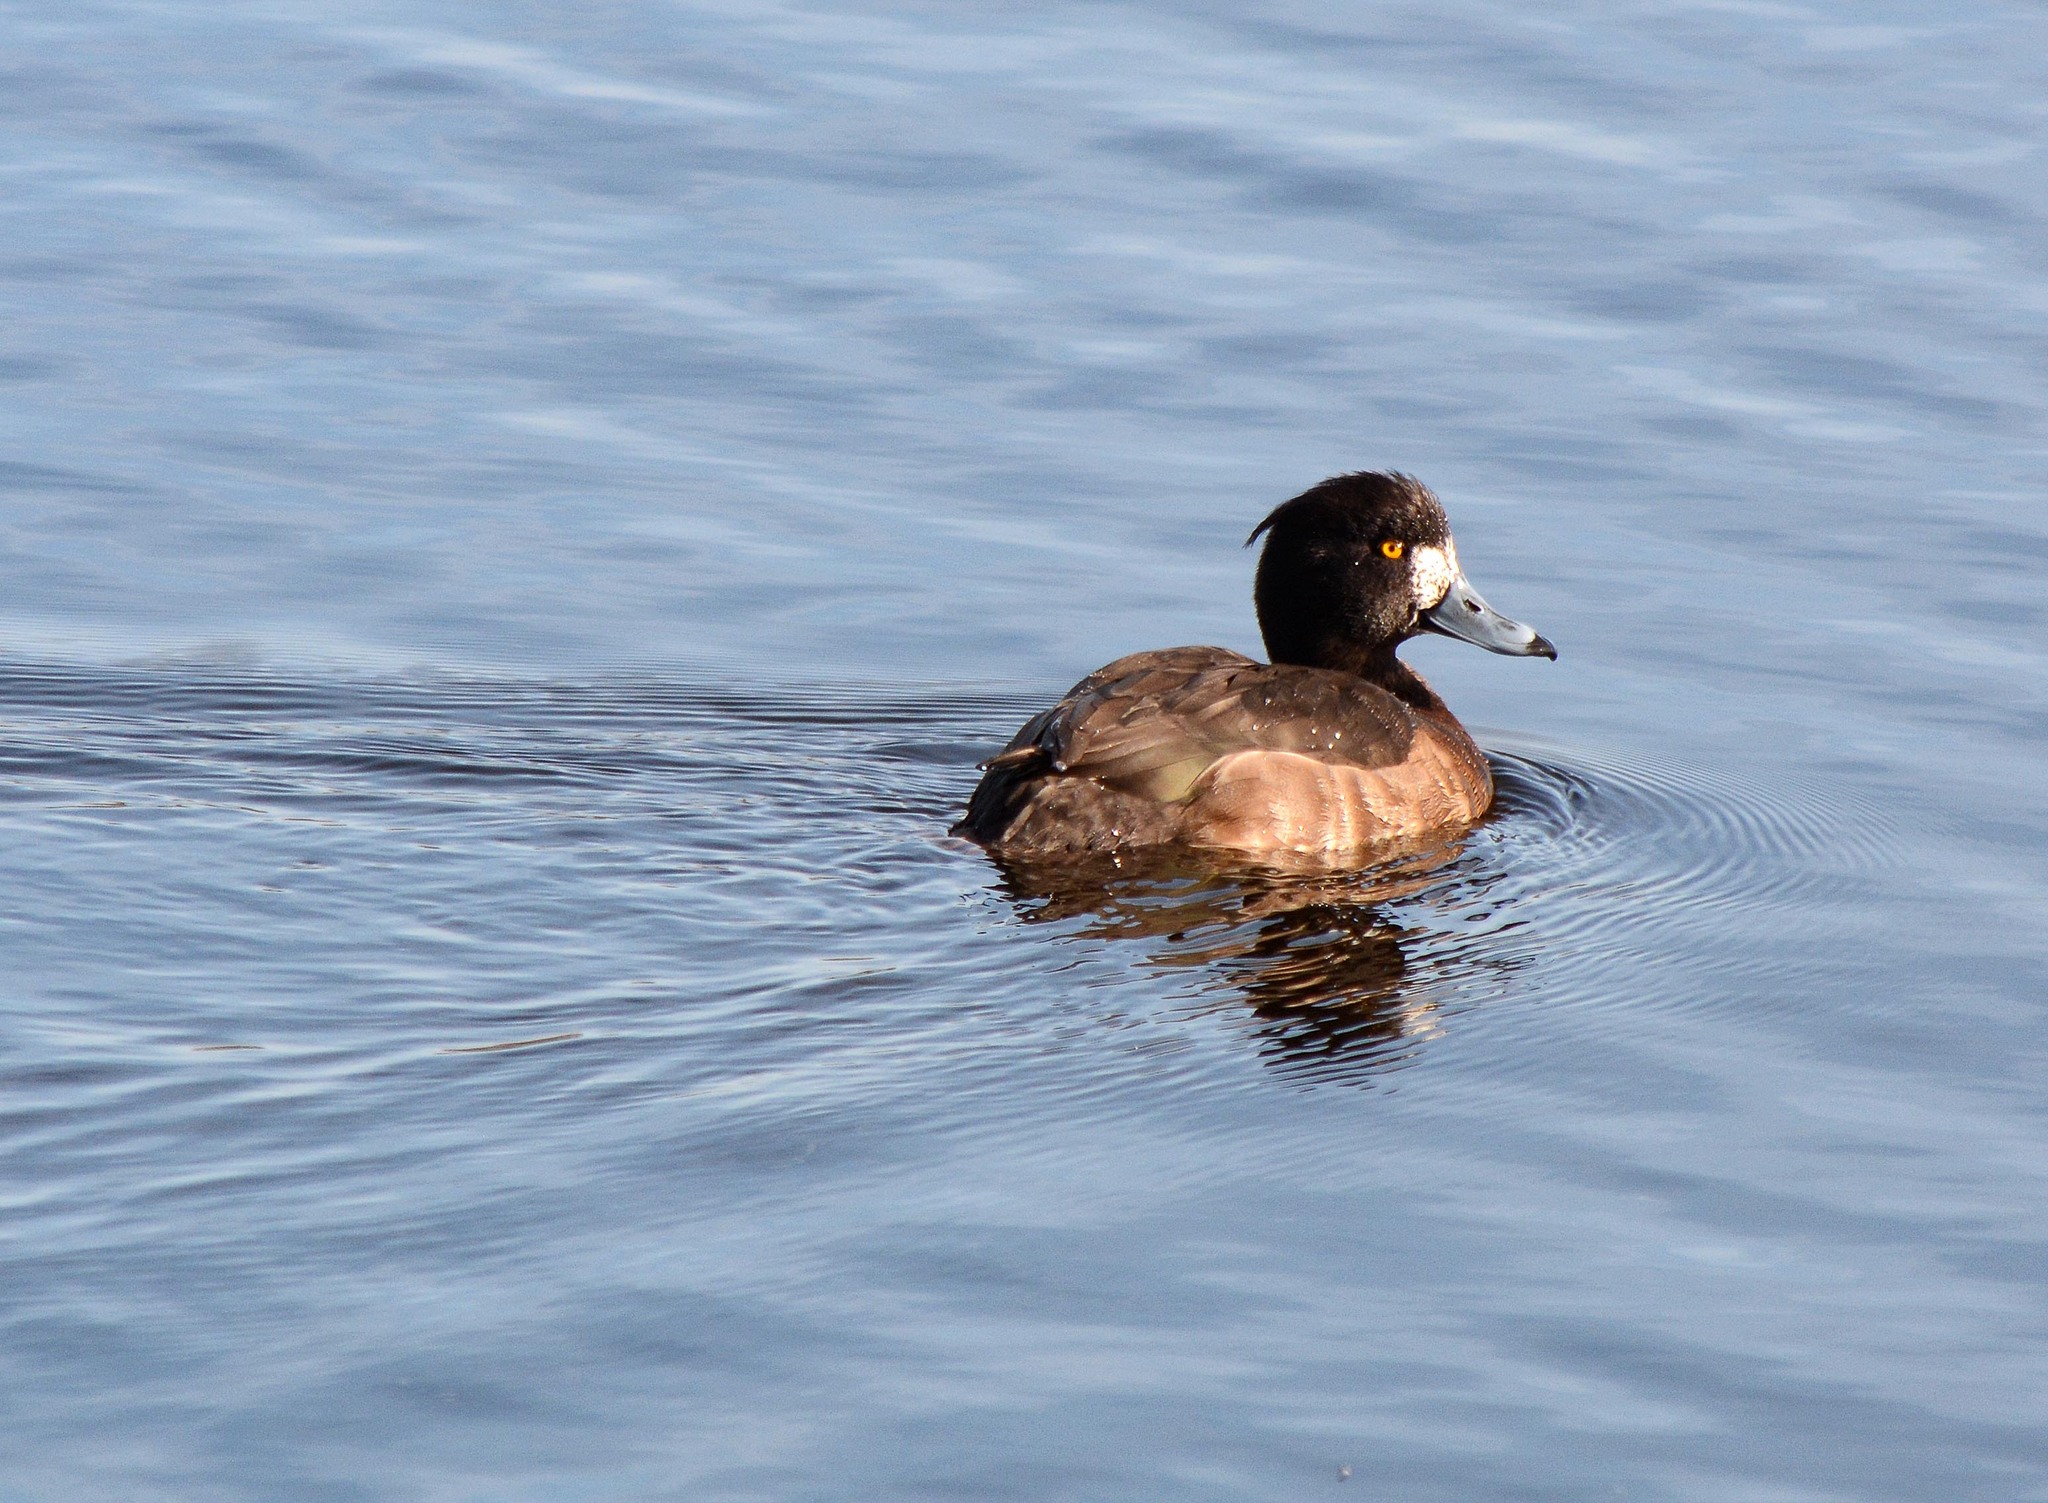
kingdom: Animalia
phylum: Chordata
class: Aves
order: Anseriformes
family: Anatidae
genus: Aythya
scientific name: Aythya fuligula
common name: Tufted duck
